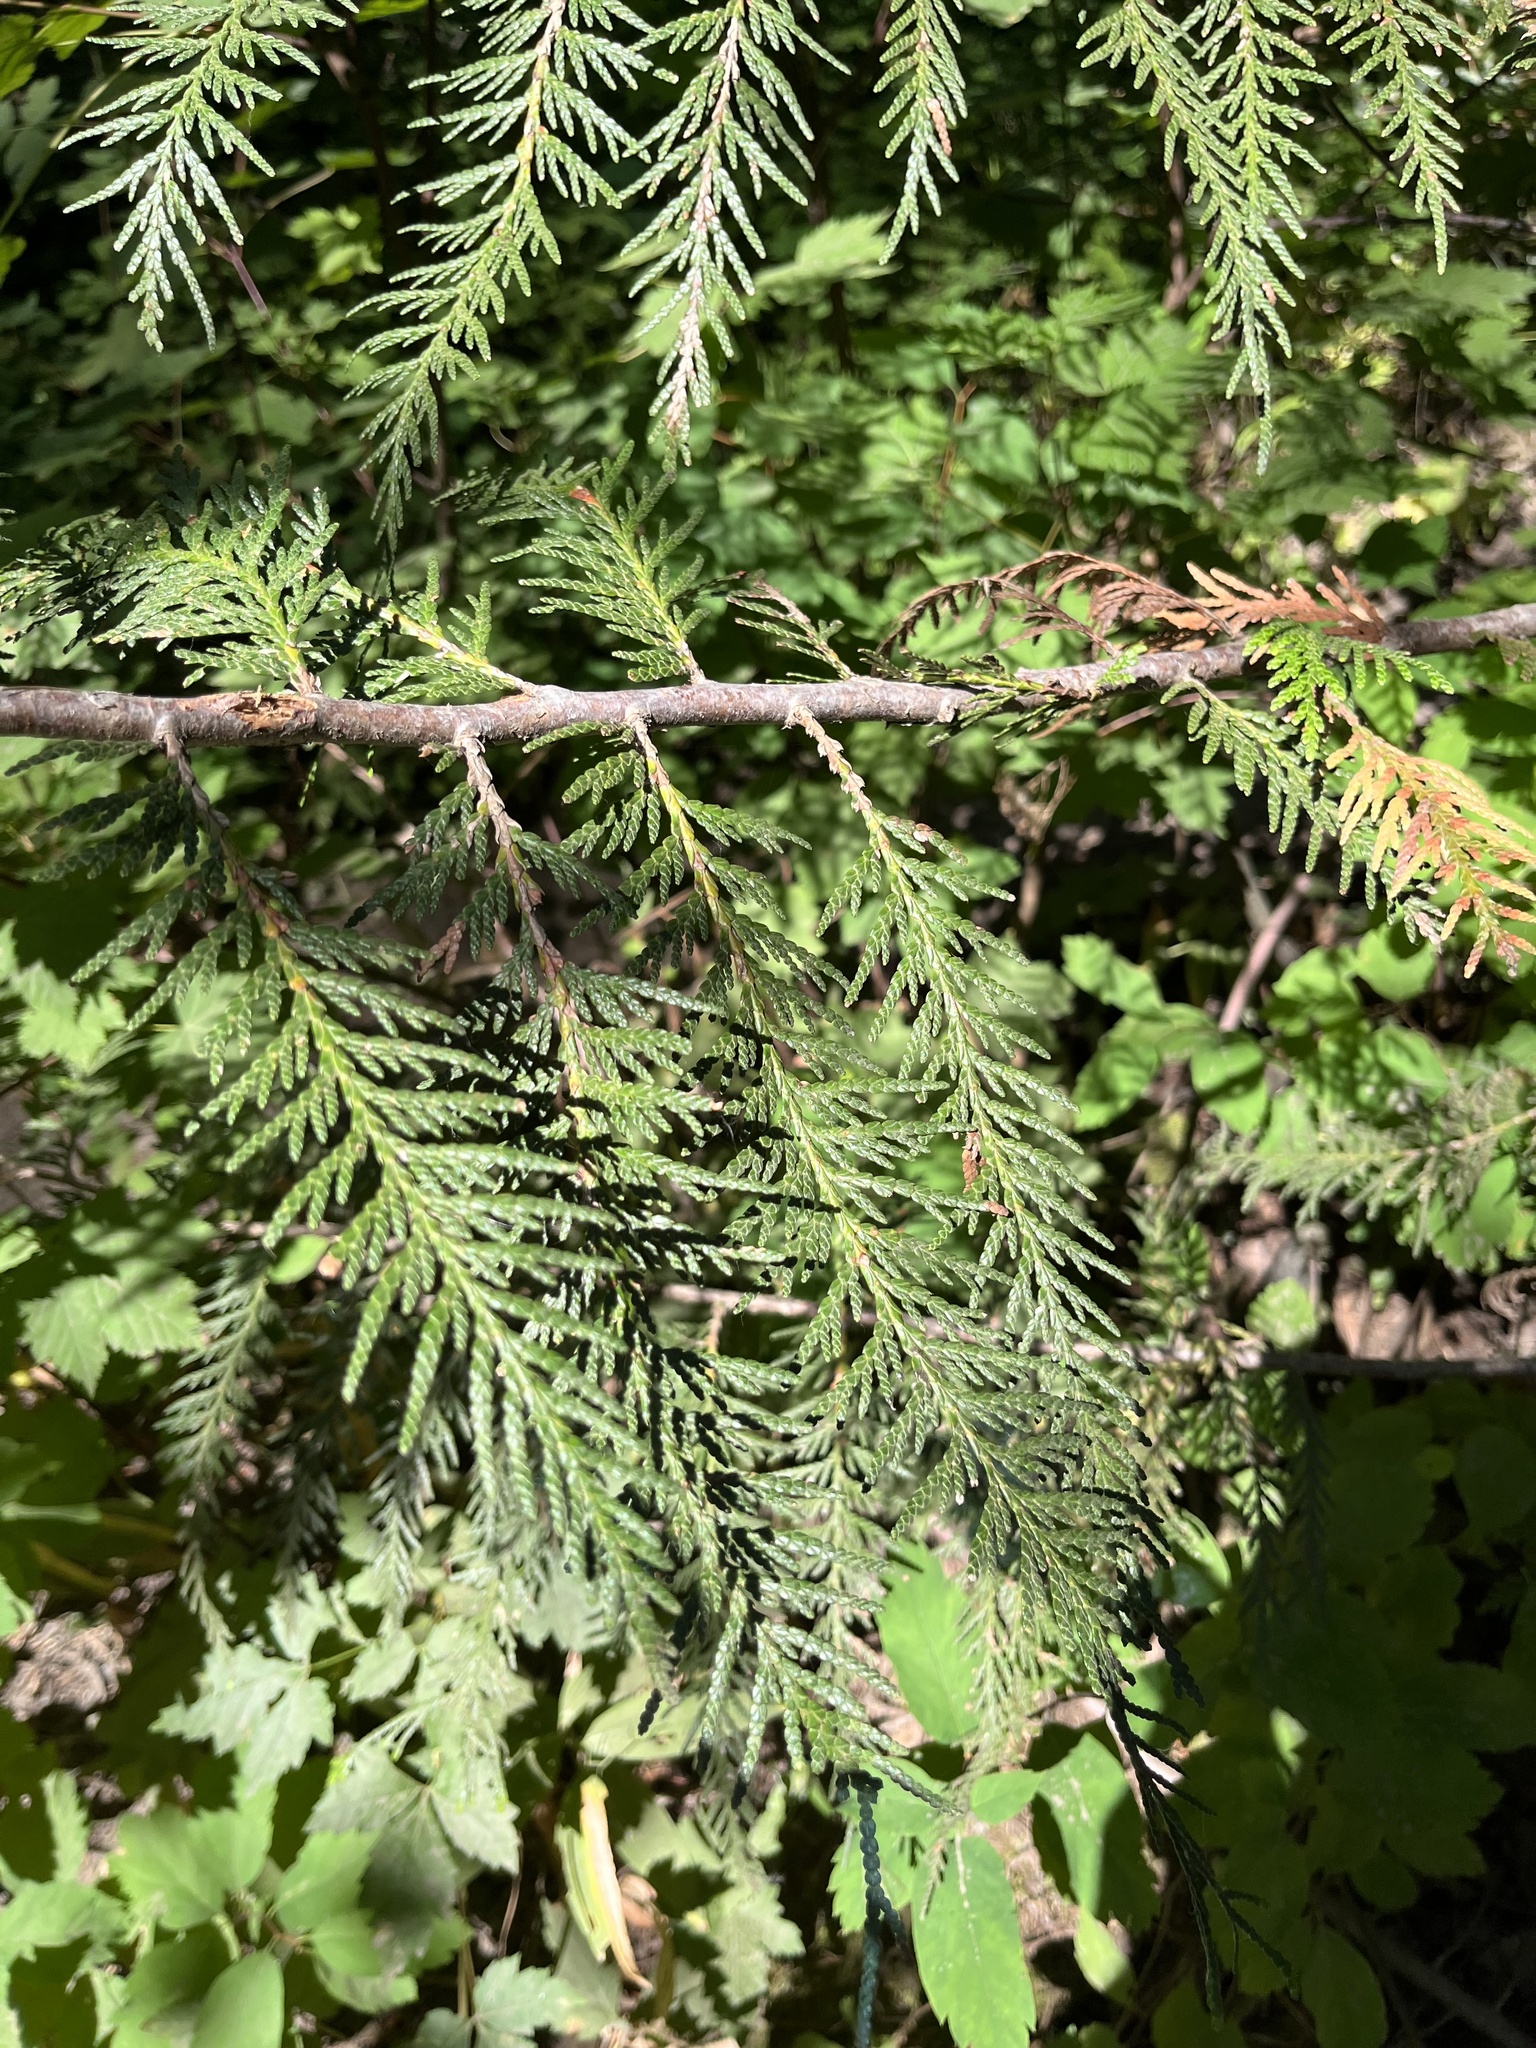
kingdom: Plantae
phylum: Tracheophyta
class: Pinopsida
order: Pinales
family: Cupressaceae
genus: Thuja
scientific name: Thuja plicata
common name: Western red-cedar
